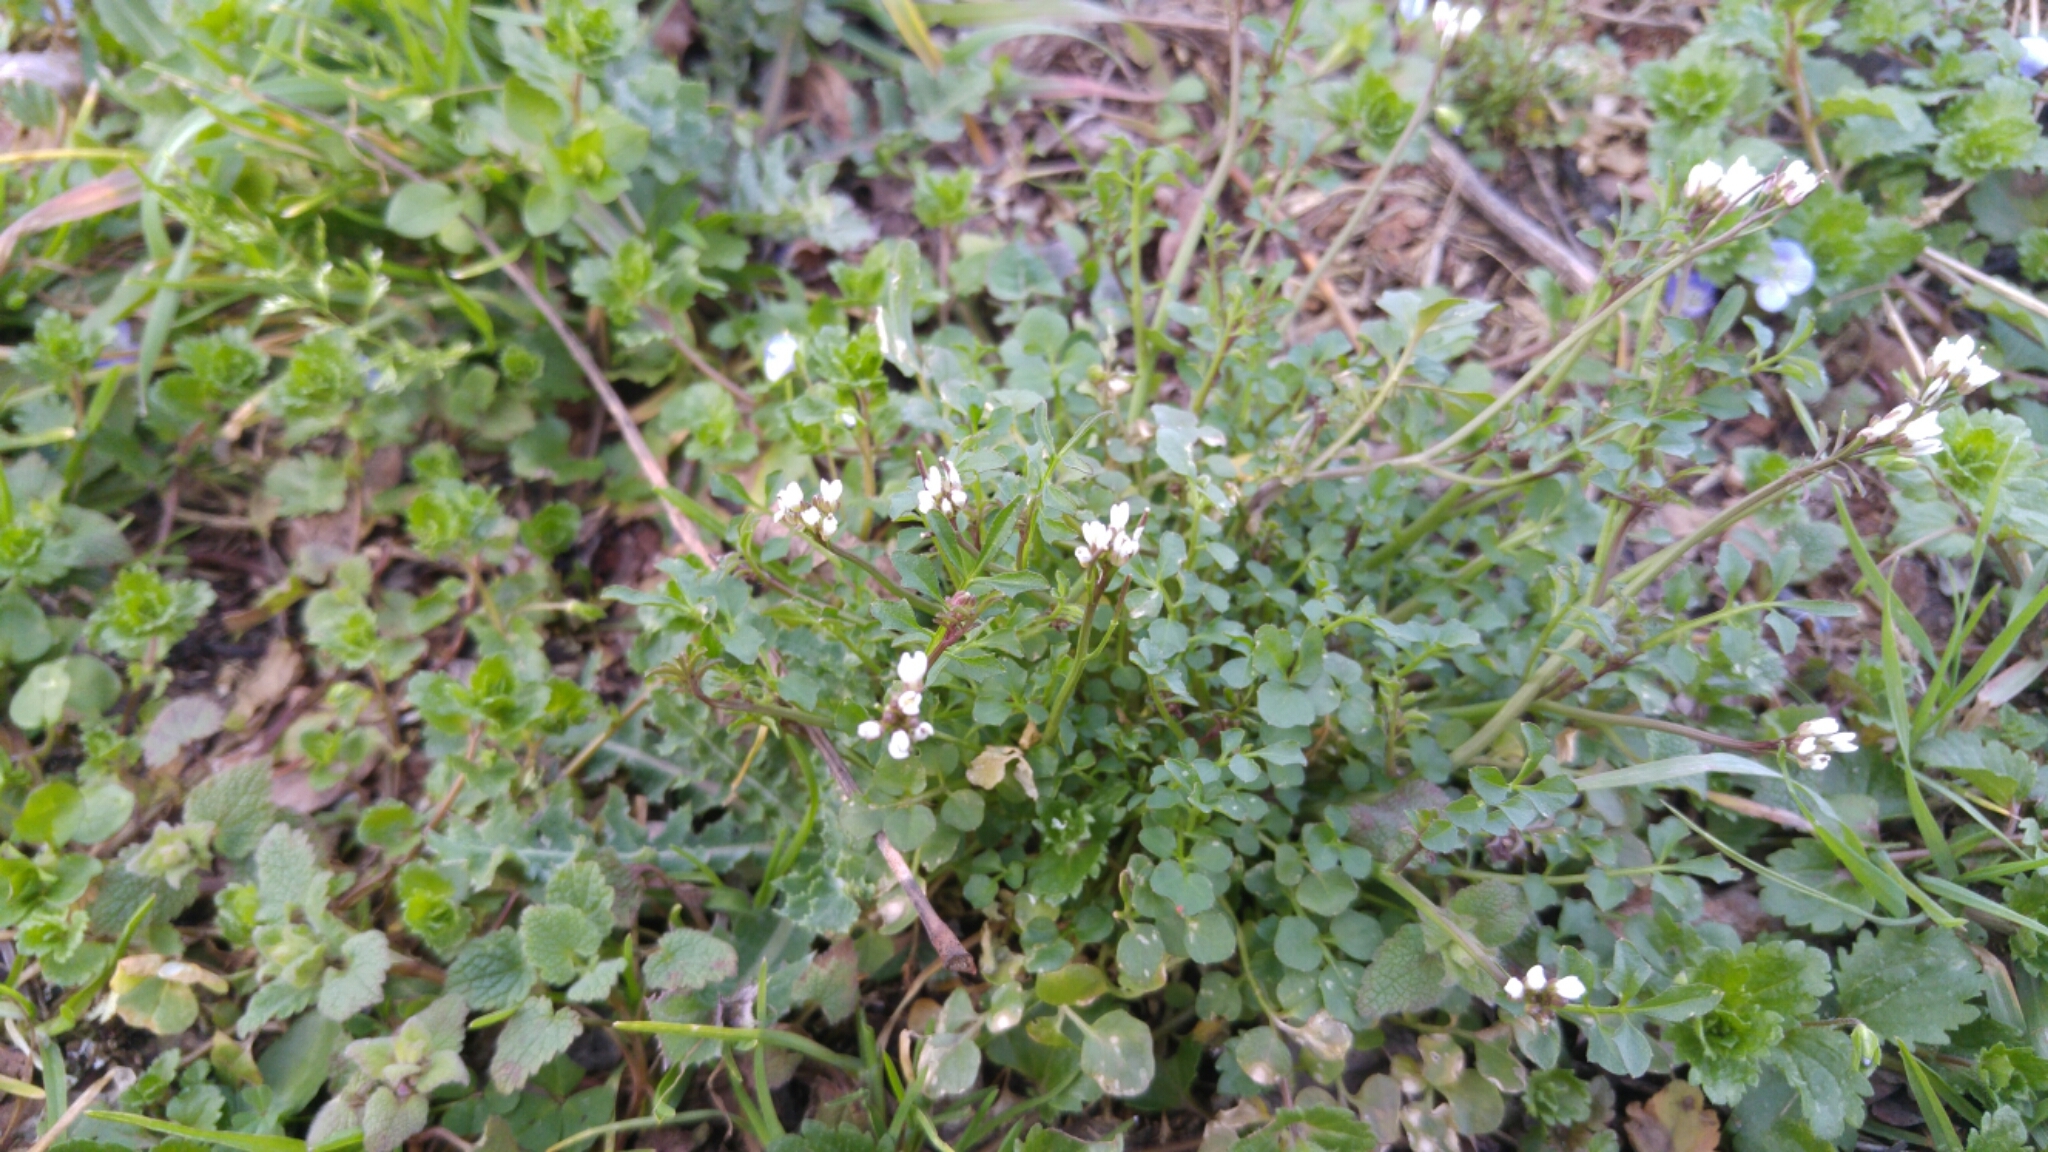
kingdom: Plantae
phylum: Tracheophyta
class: Magnoliopsida
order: Brassicales
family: Brassicaceae
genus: Cardamine
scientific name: Cardamine hirsuta
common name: Hairy bittercress
